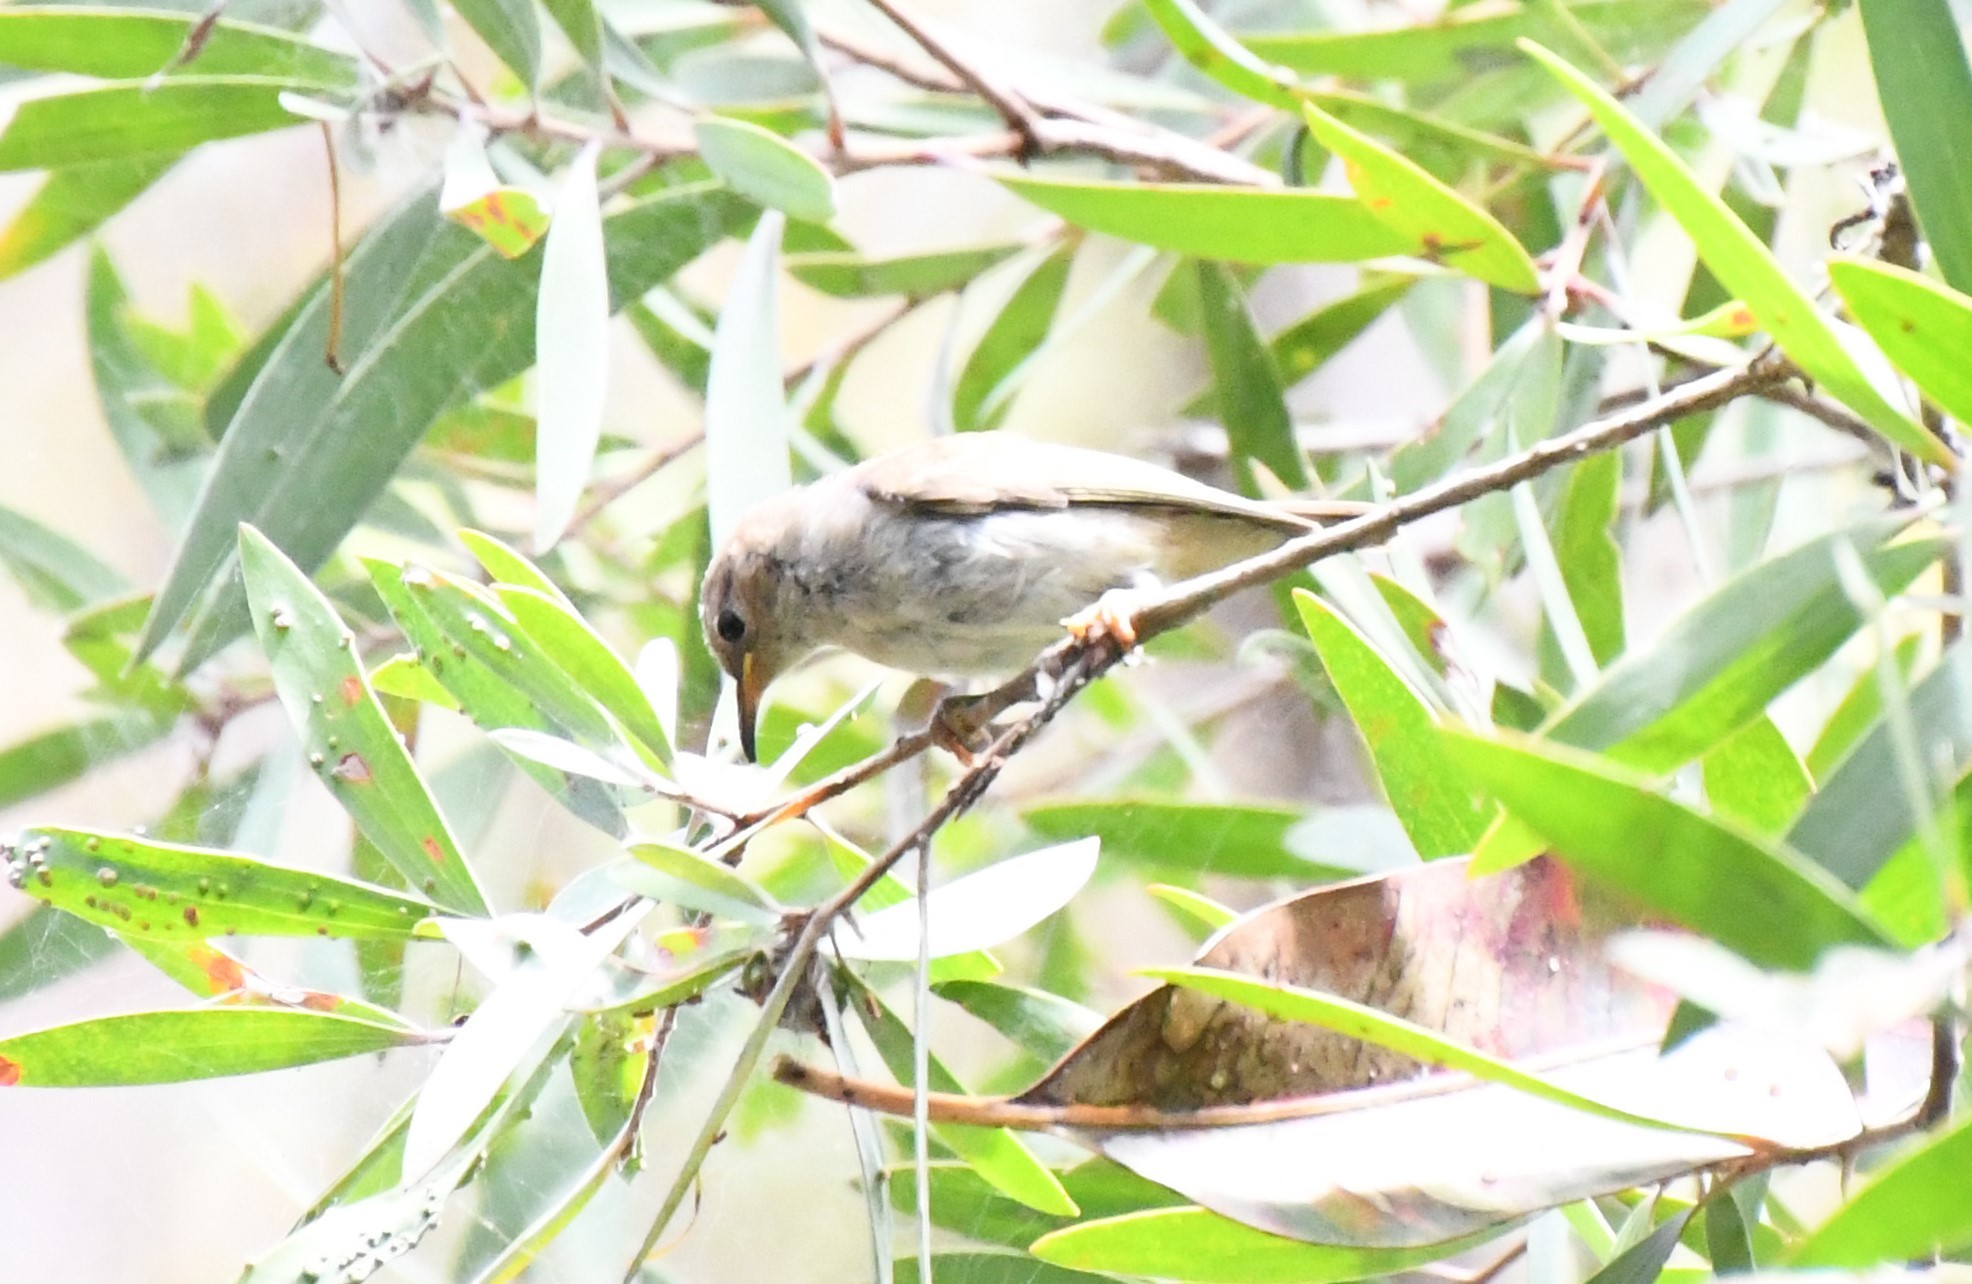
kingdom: Animalia
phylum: Chordata
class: Aves
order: Passeriformes
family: Meliphagidae
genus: Myzomela
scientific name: Myzomela sanguinolenta
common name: Scarlet myzomela
